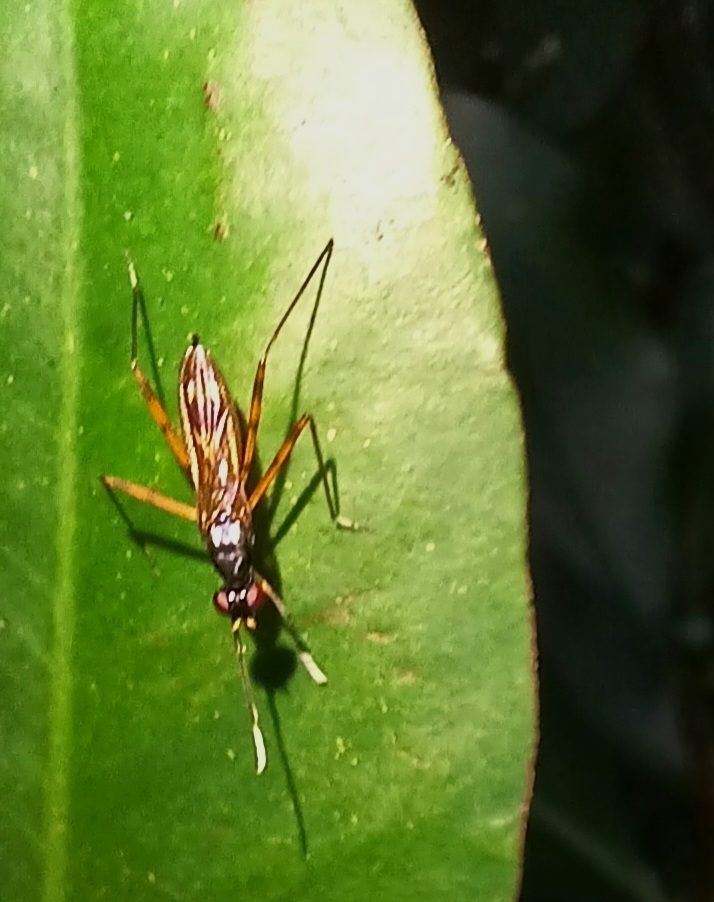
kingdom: Animalia
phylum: Arthropoda
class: Insecta
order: Diptera
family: Micropezidae
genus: Mimegralla
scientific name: Mimegralla albimanus
